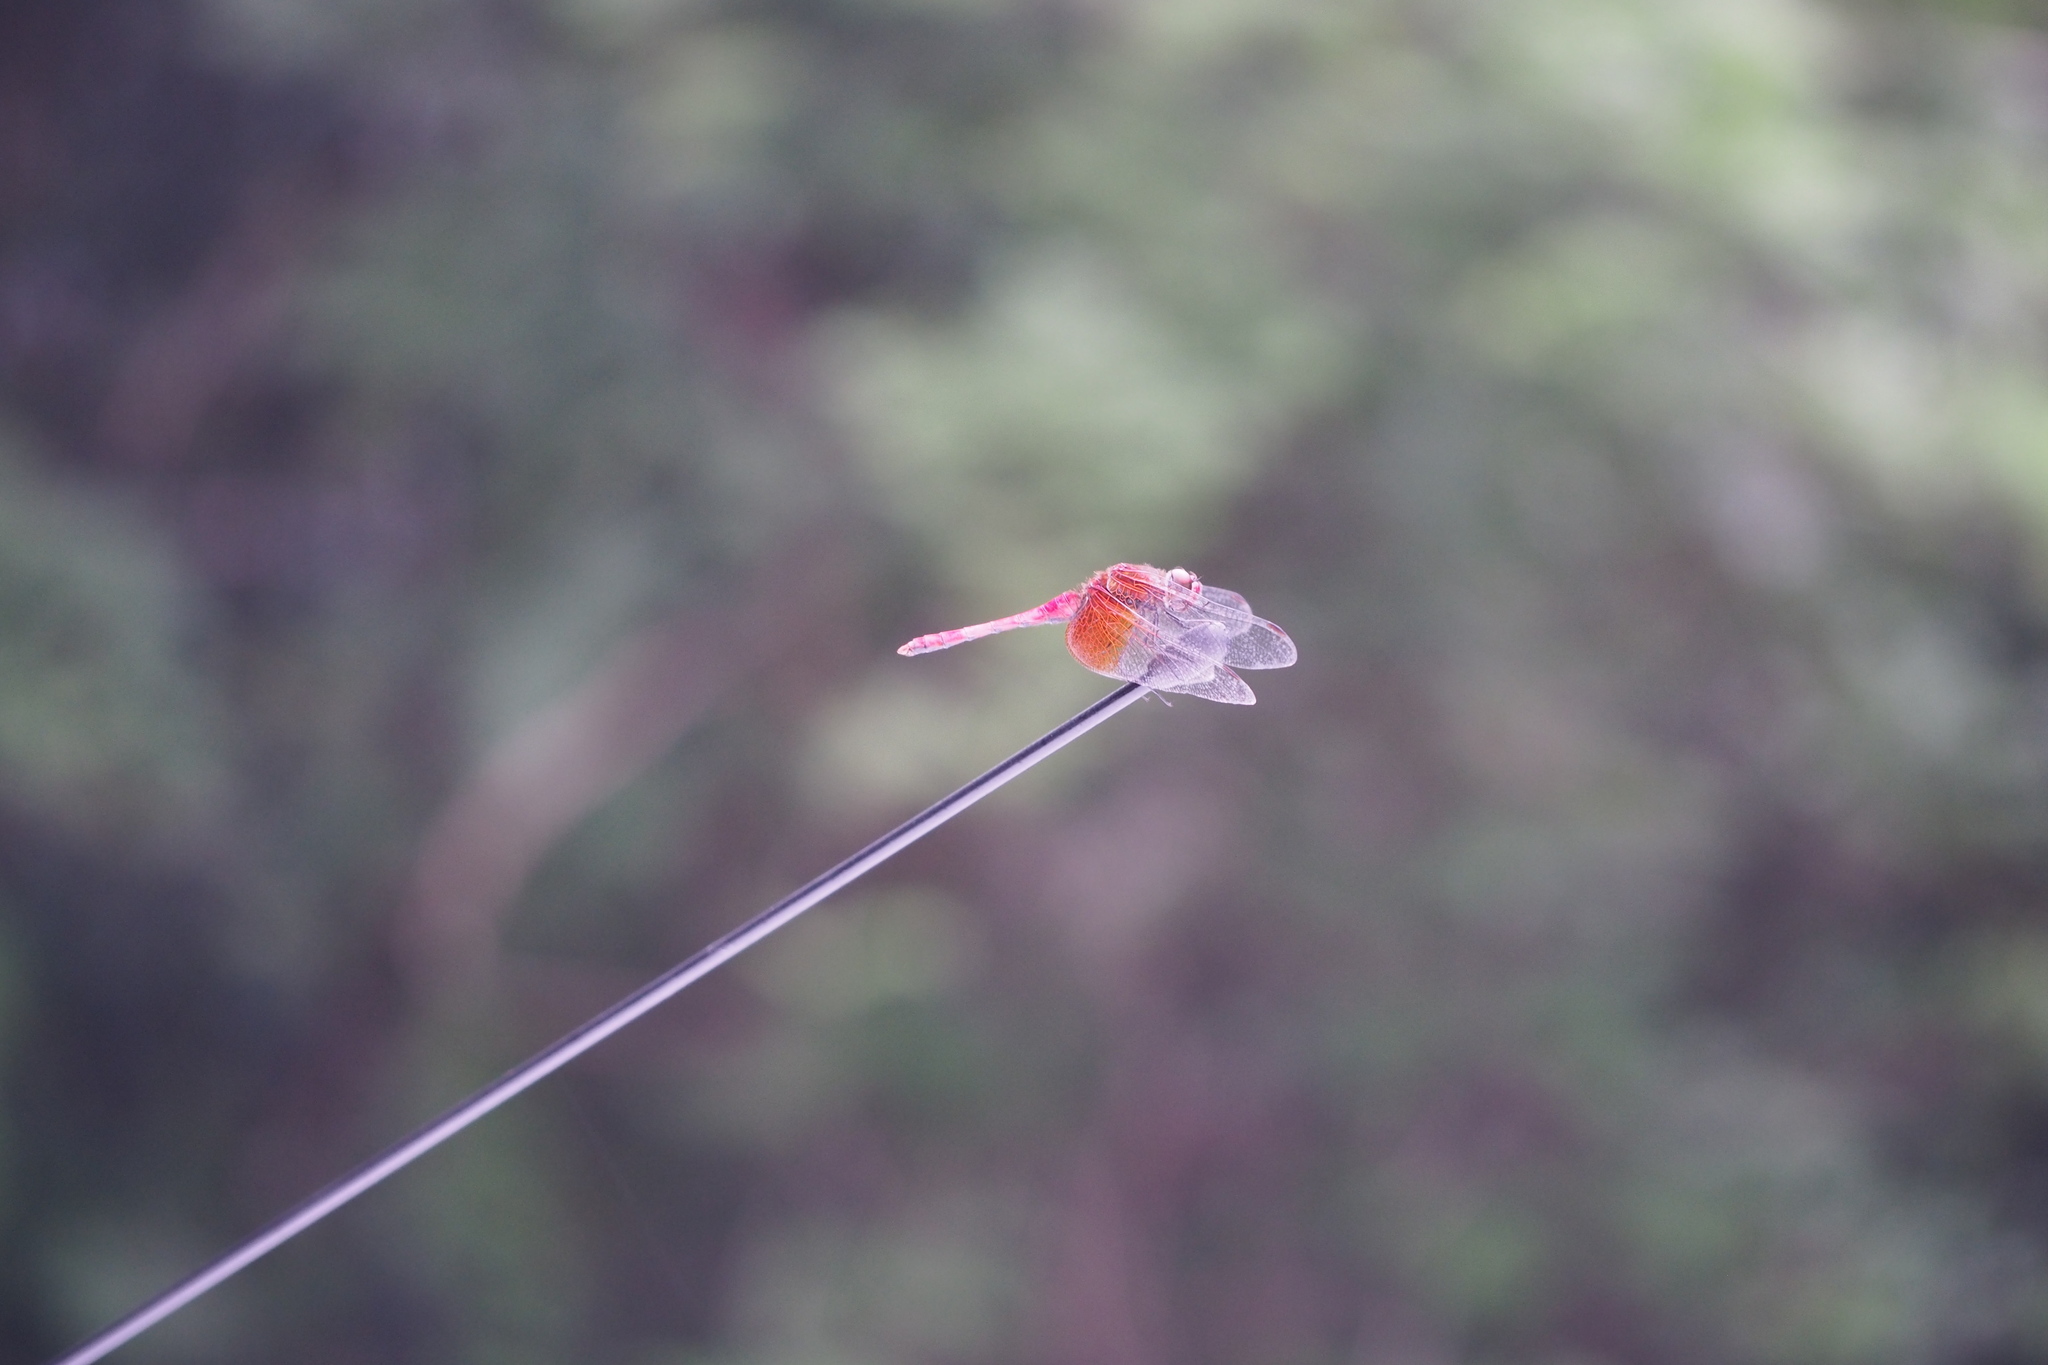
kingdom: Animalia
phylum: Arthropoda
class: Insecta
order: Odonata
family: Libellulidae
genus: Sympetrum
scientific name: Sympetrum speciosum
